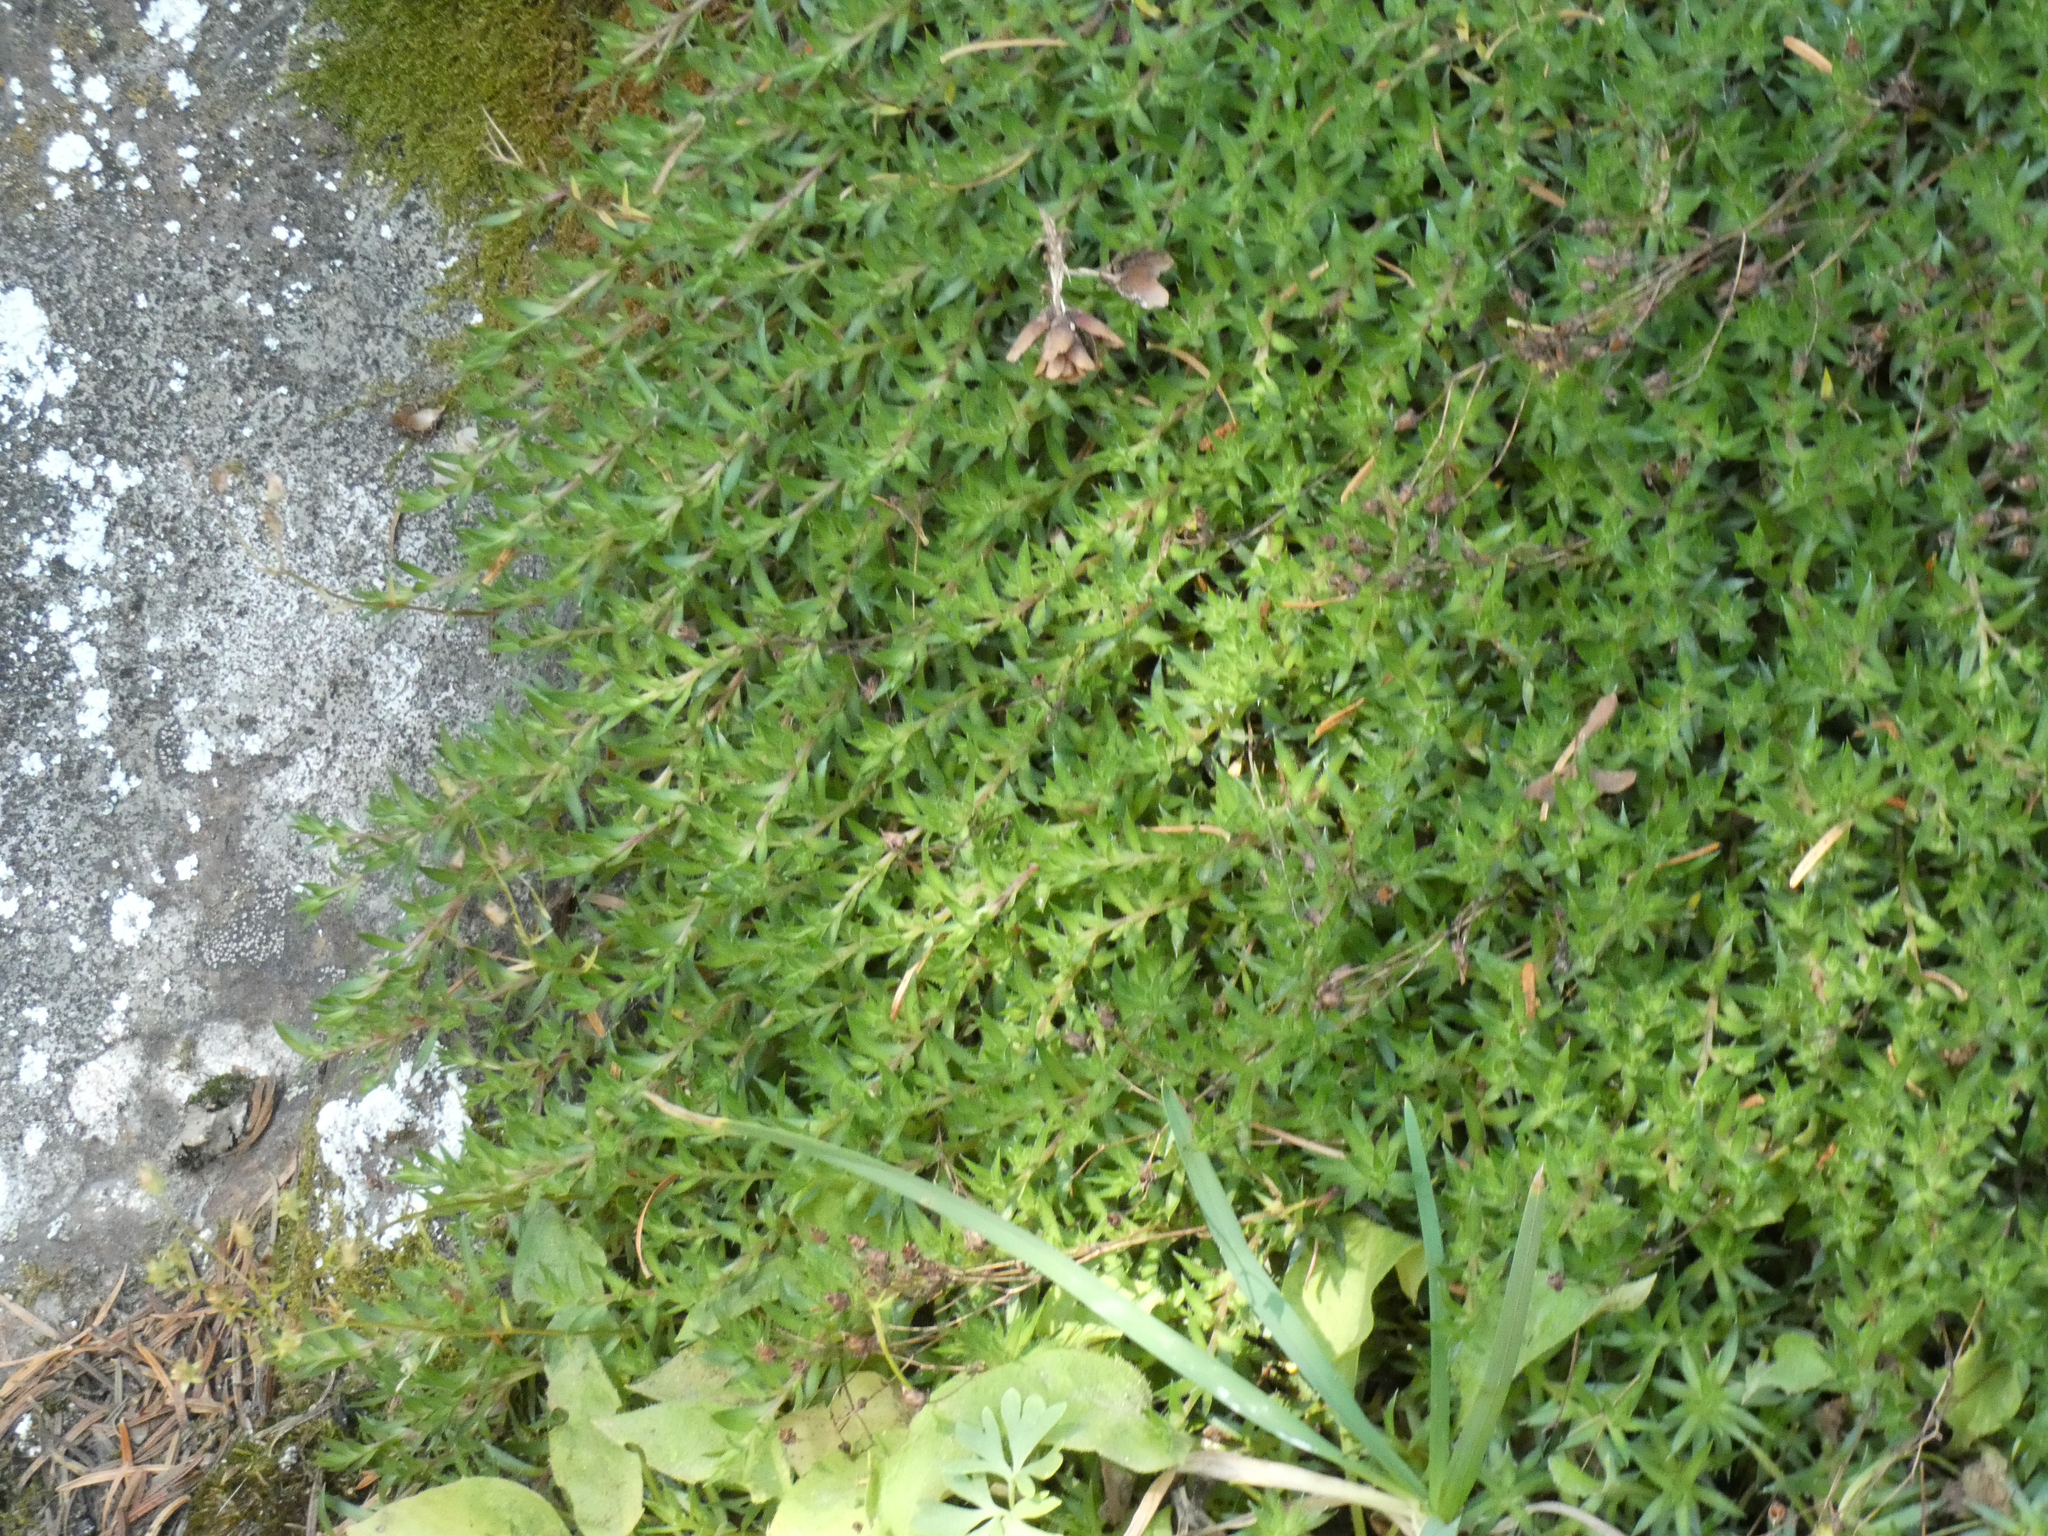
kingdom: Plantae
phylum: Tracheophyta
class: Magnoliopsida
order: Saxifragales
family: Saxifragaceae
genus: Saxifraga
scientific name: Saxifraga bronchialis
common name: Matted saxifrage
